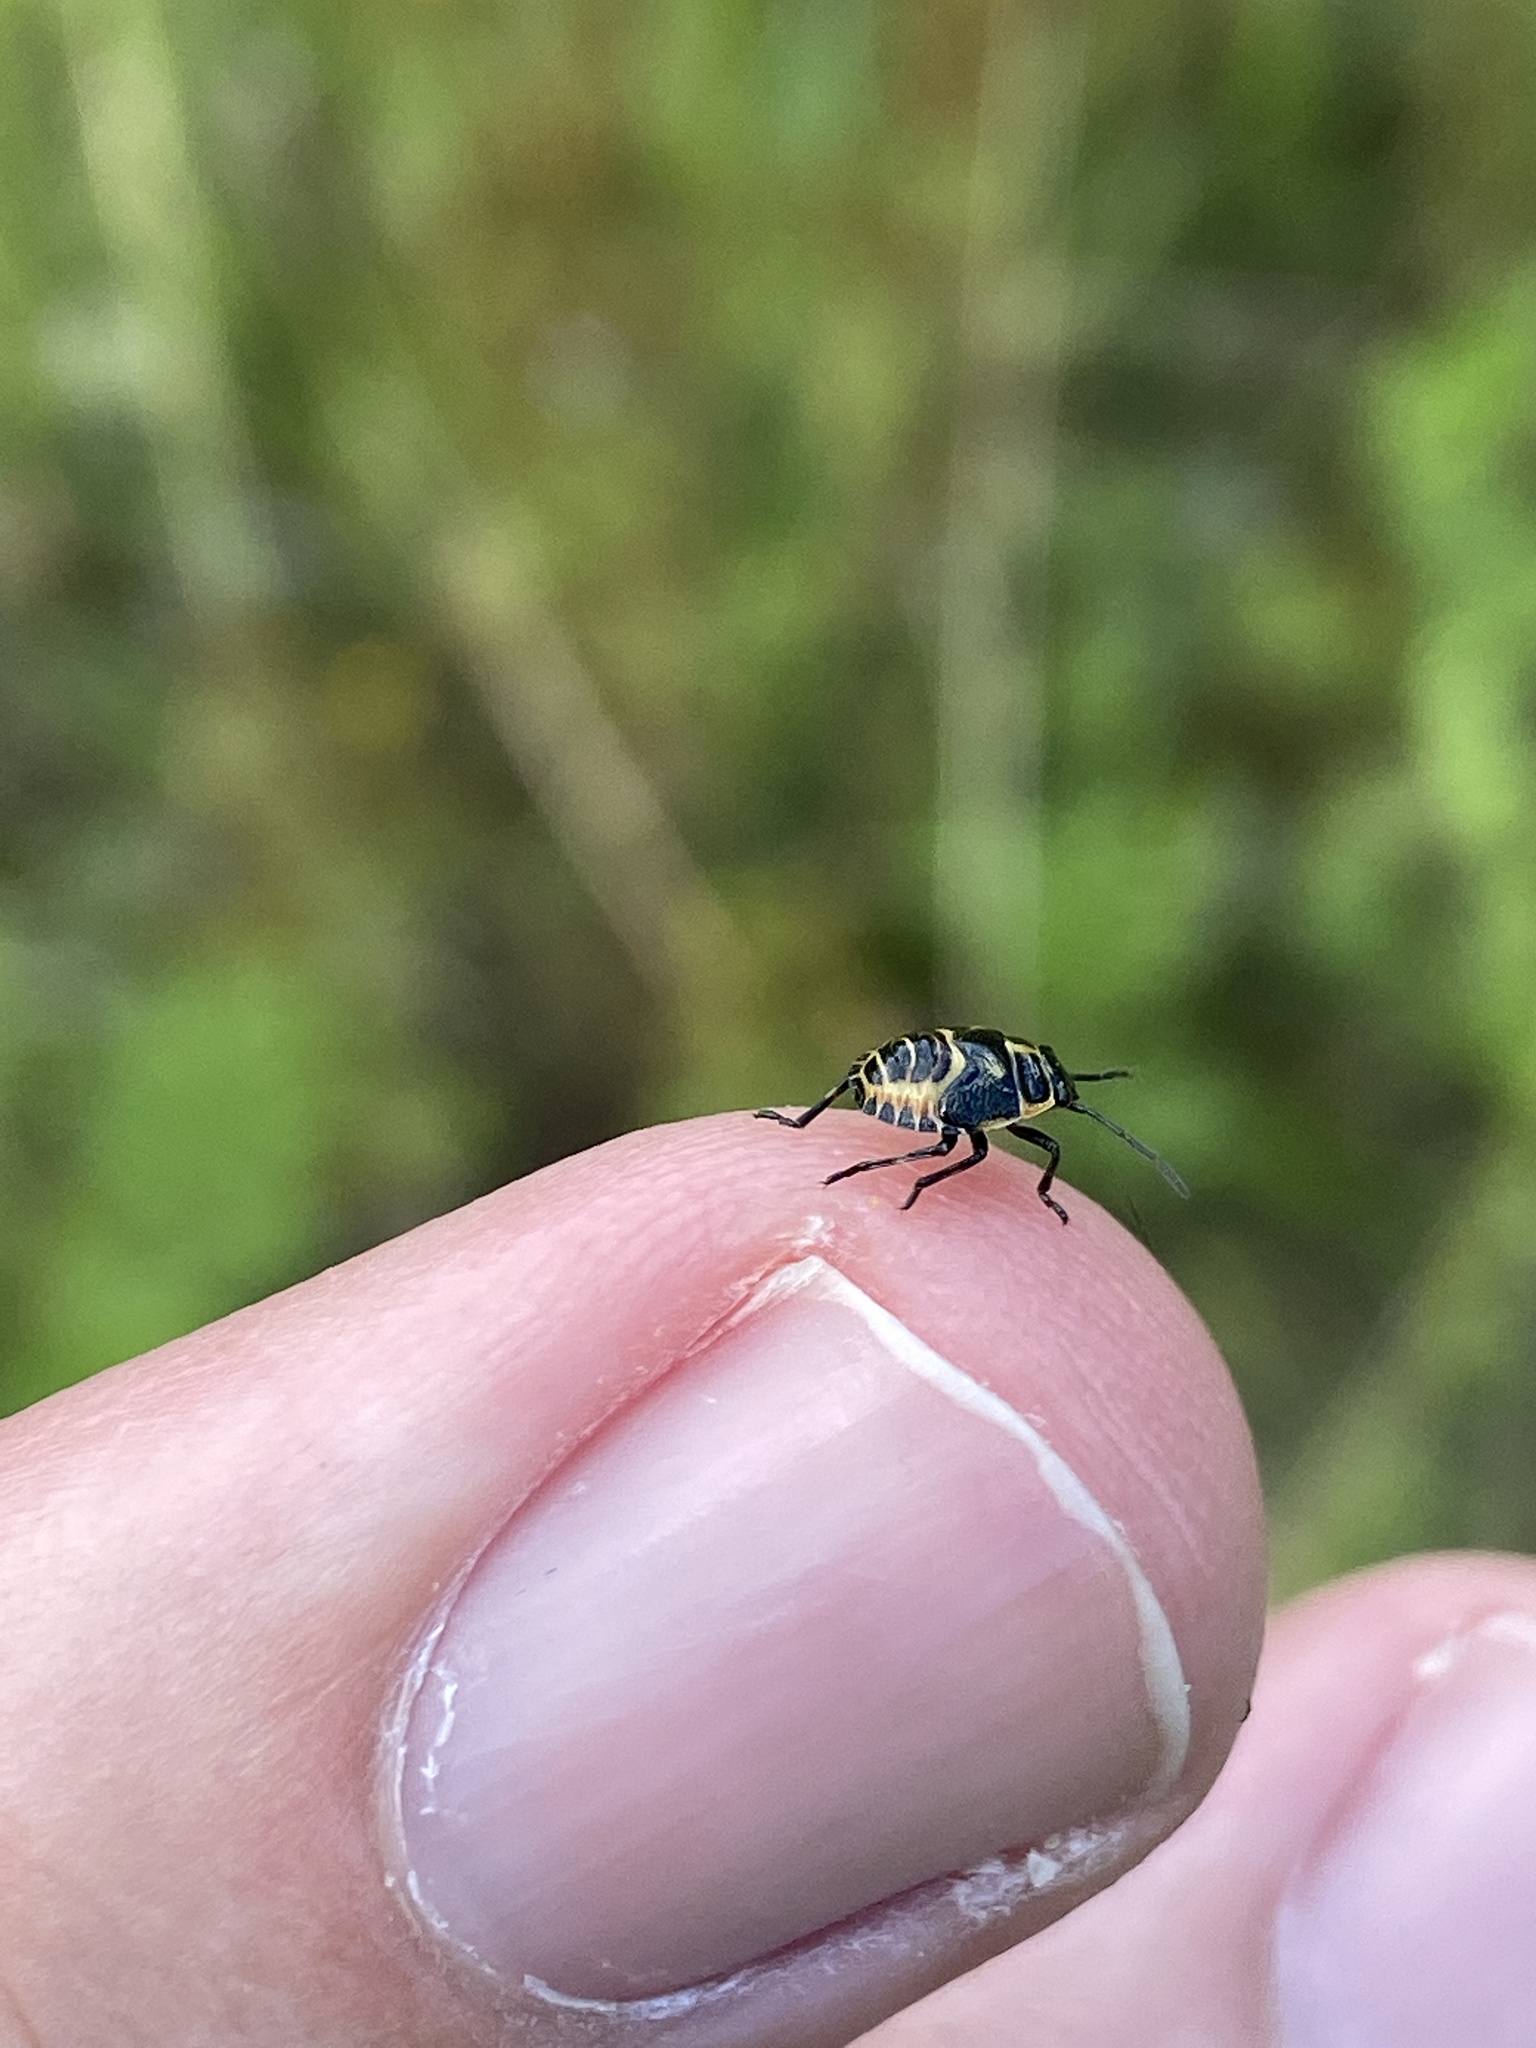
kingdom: Animalia
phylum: Arthropoda
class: Insecta
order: Hemiptera
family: Pentatomidae
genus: Eurydema
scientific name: Eurydema oleracea
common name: Cabbage bug
